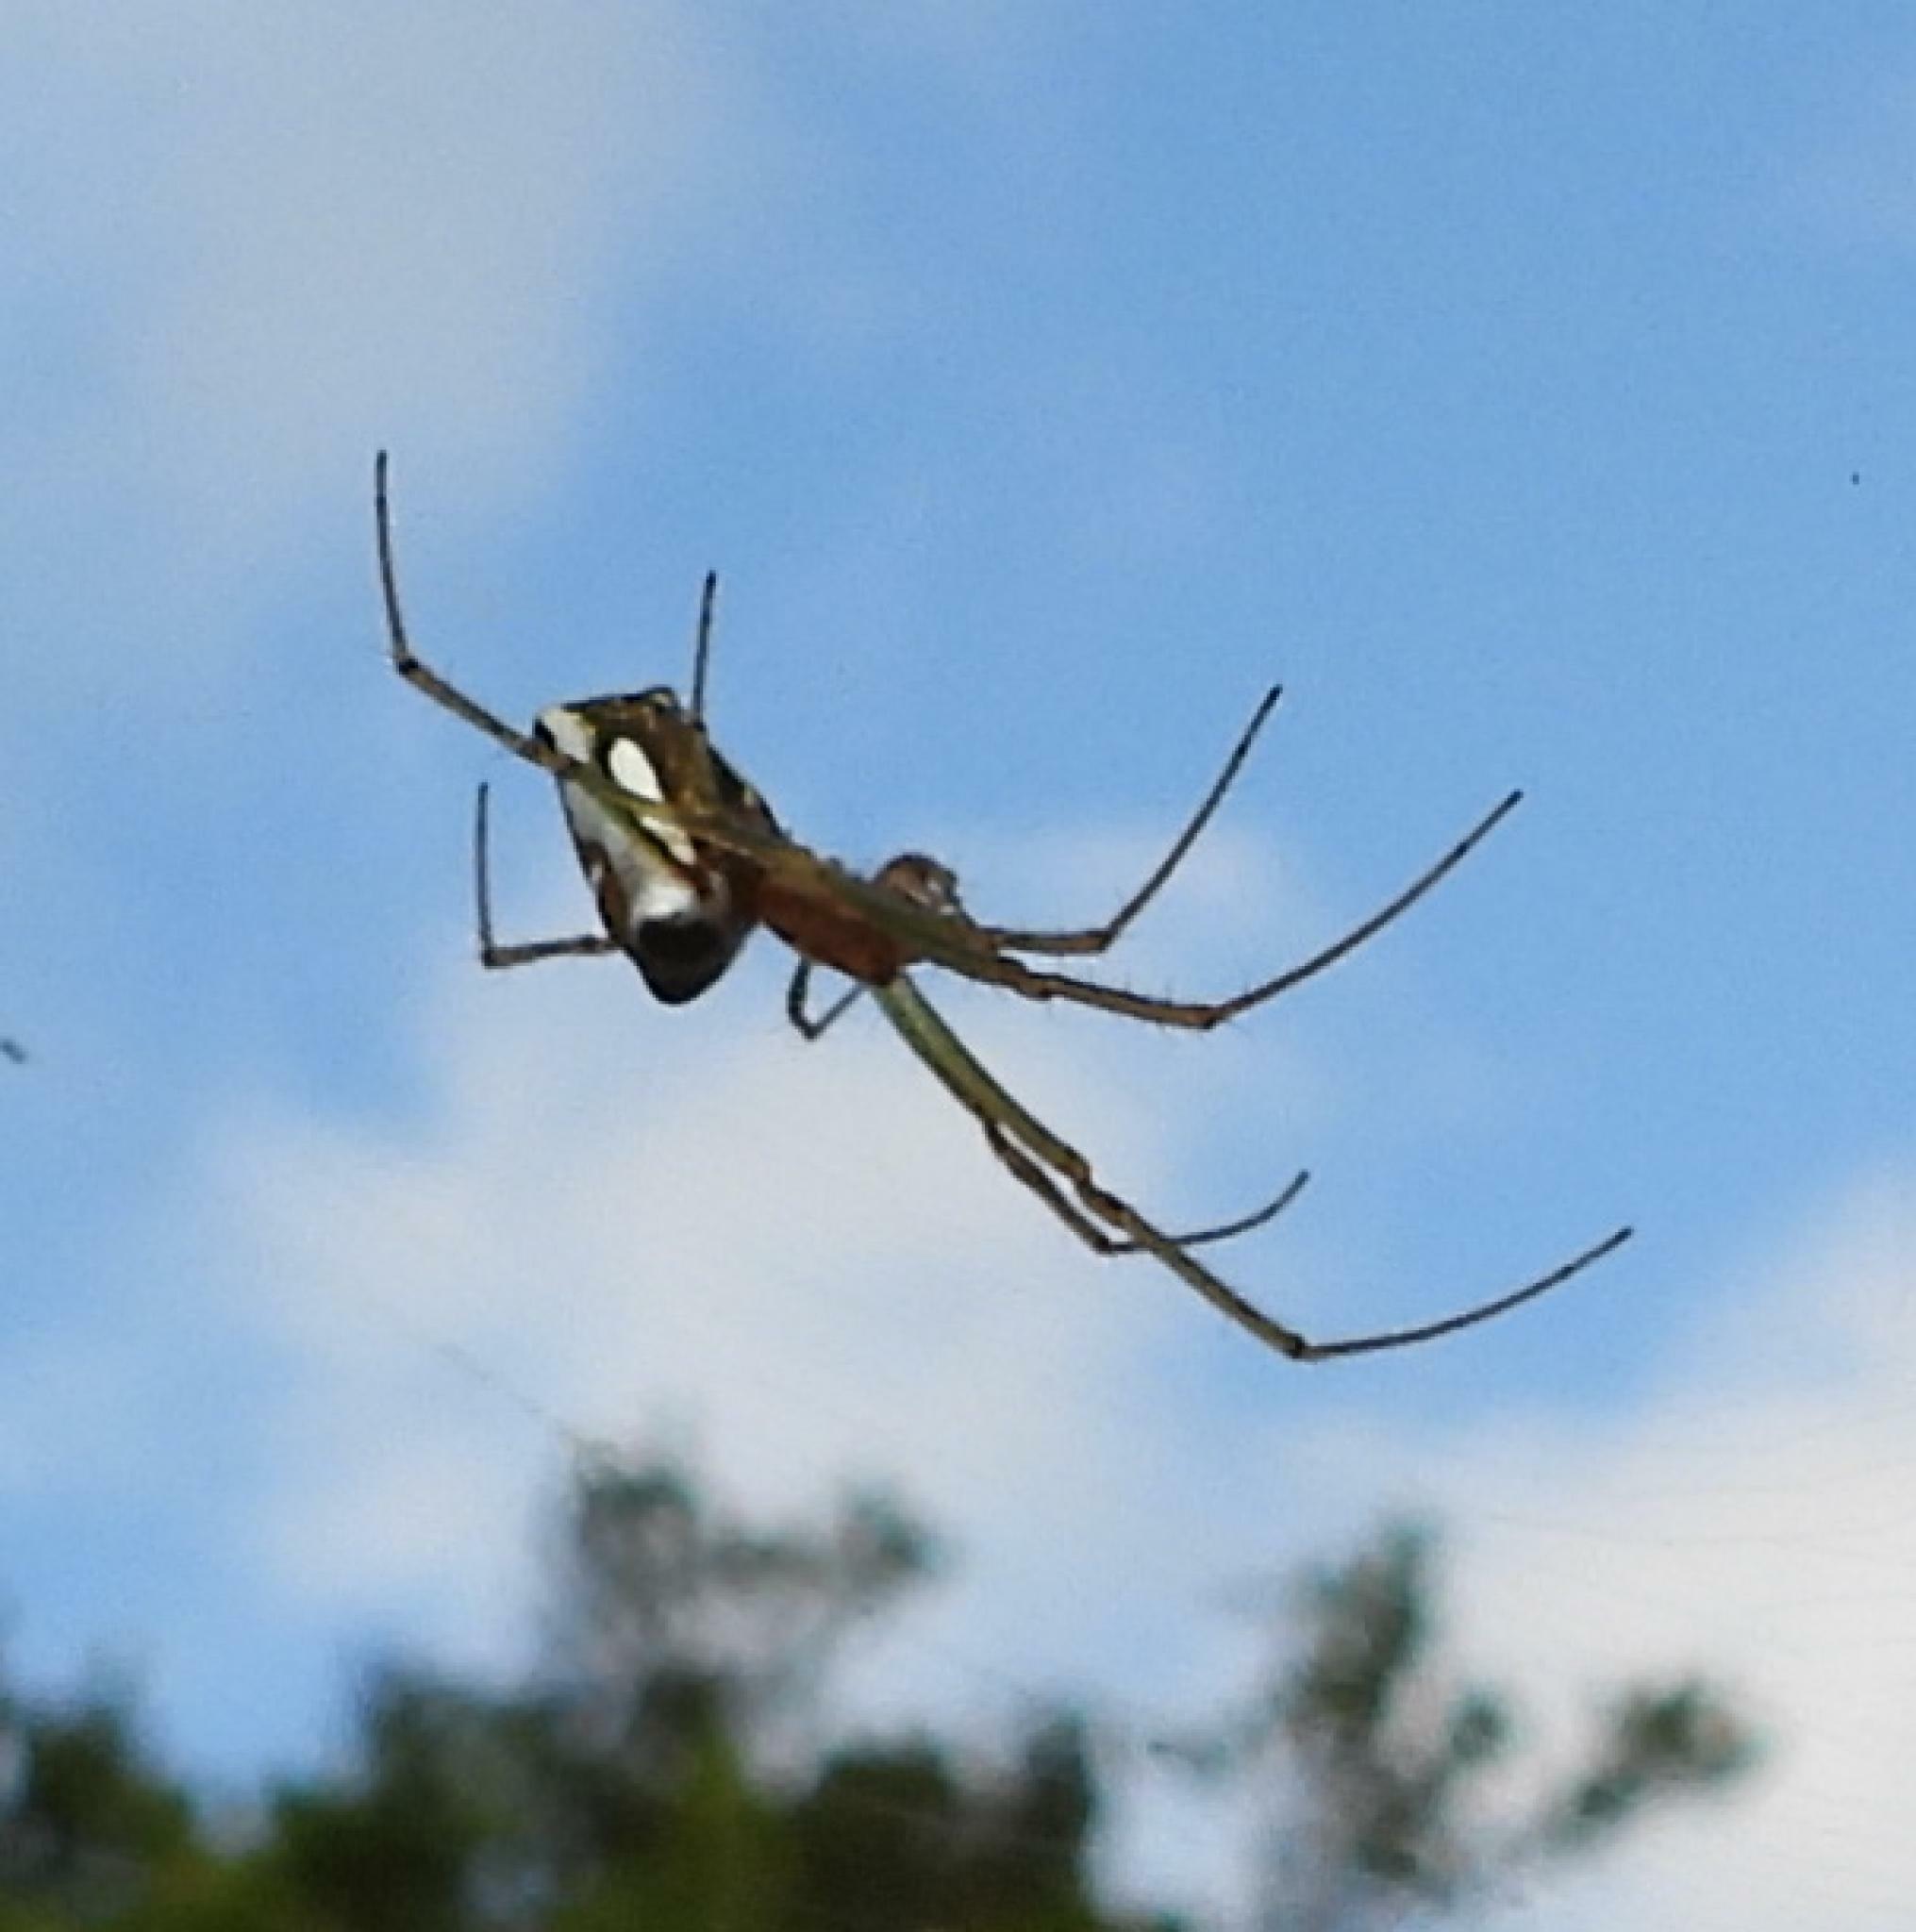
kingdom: Animalia
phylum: Arthropoda
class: Arachnida
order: Araneae
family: Tetragnathidae
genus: Leucauge
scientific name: Leucauge festiva
